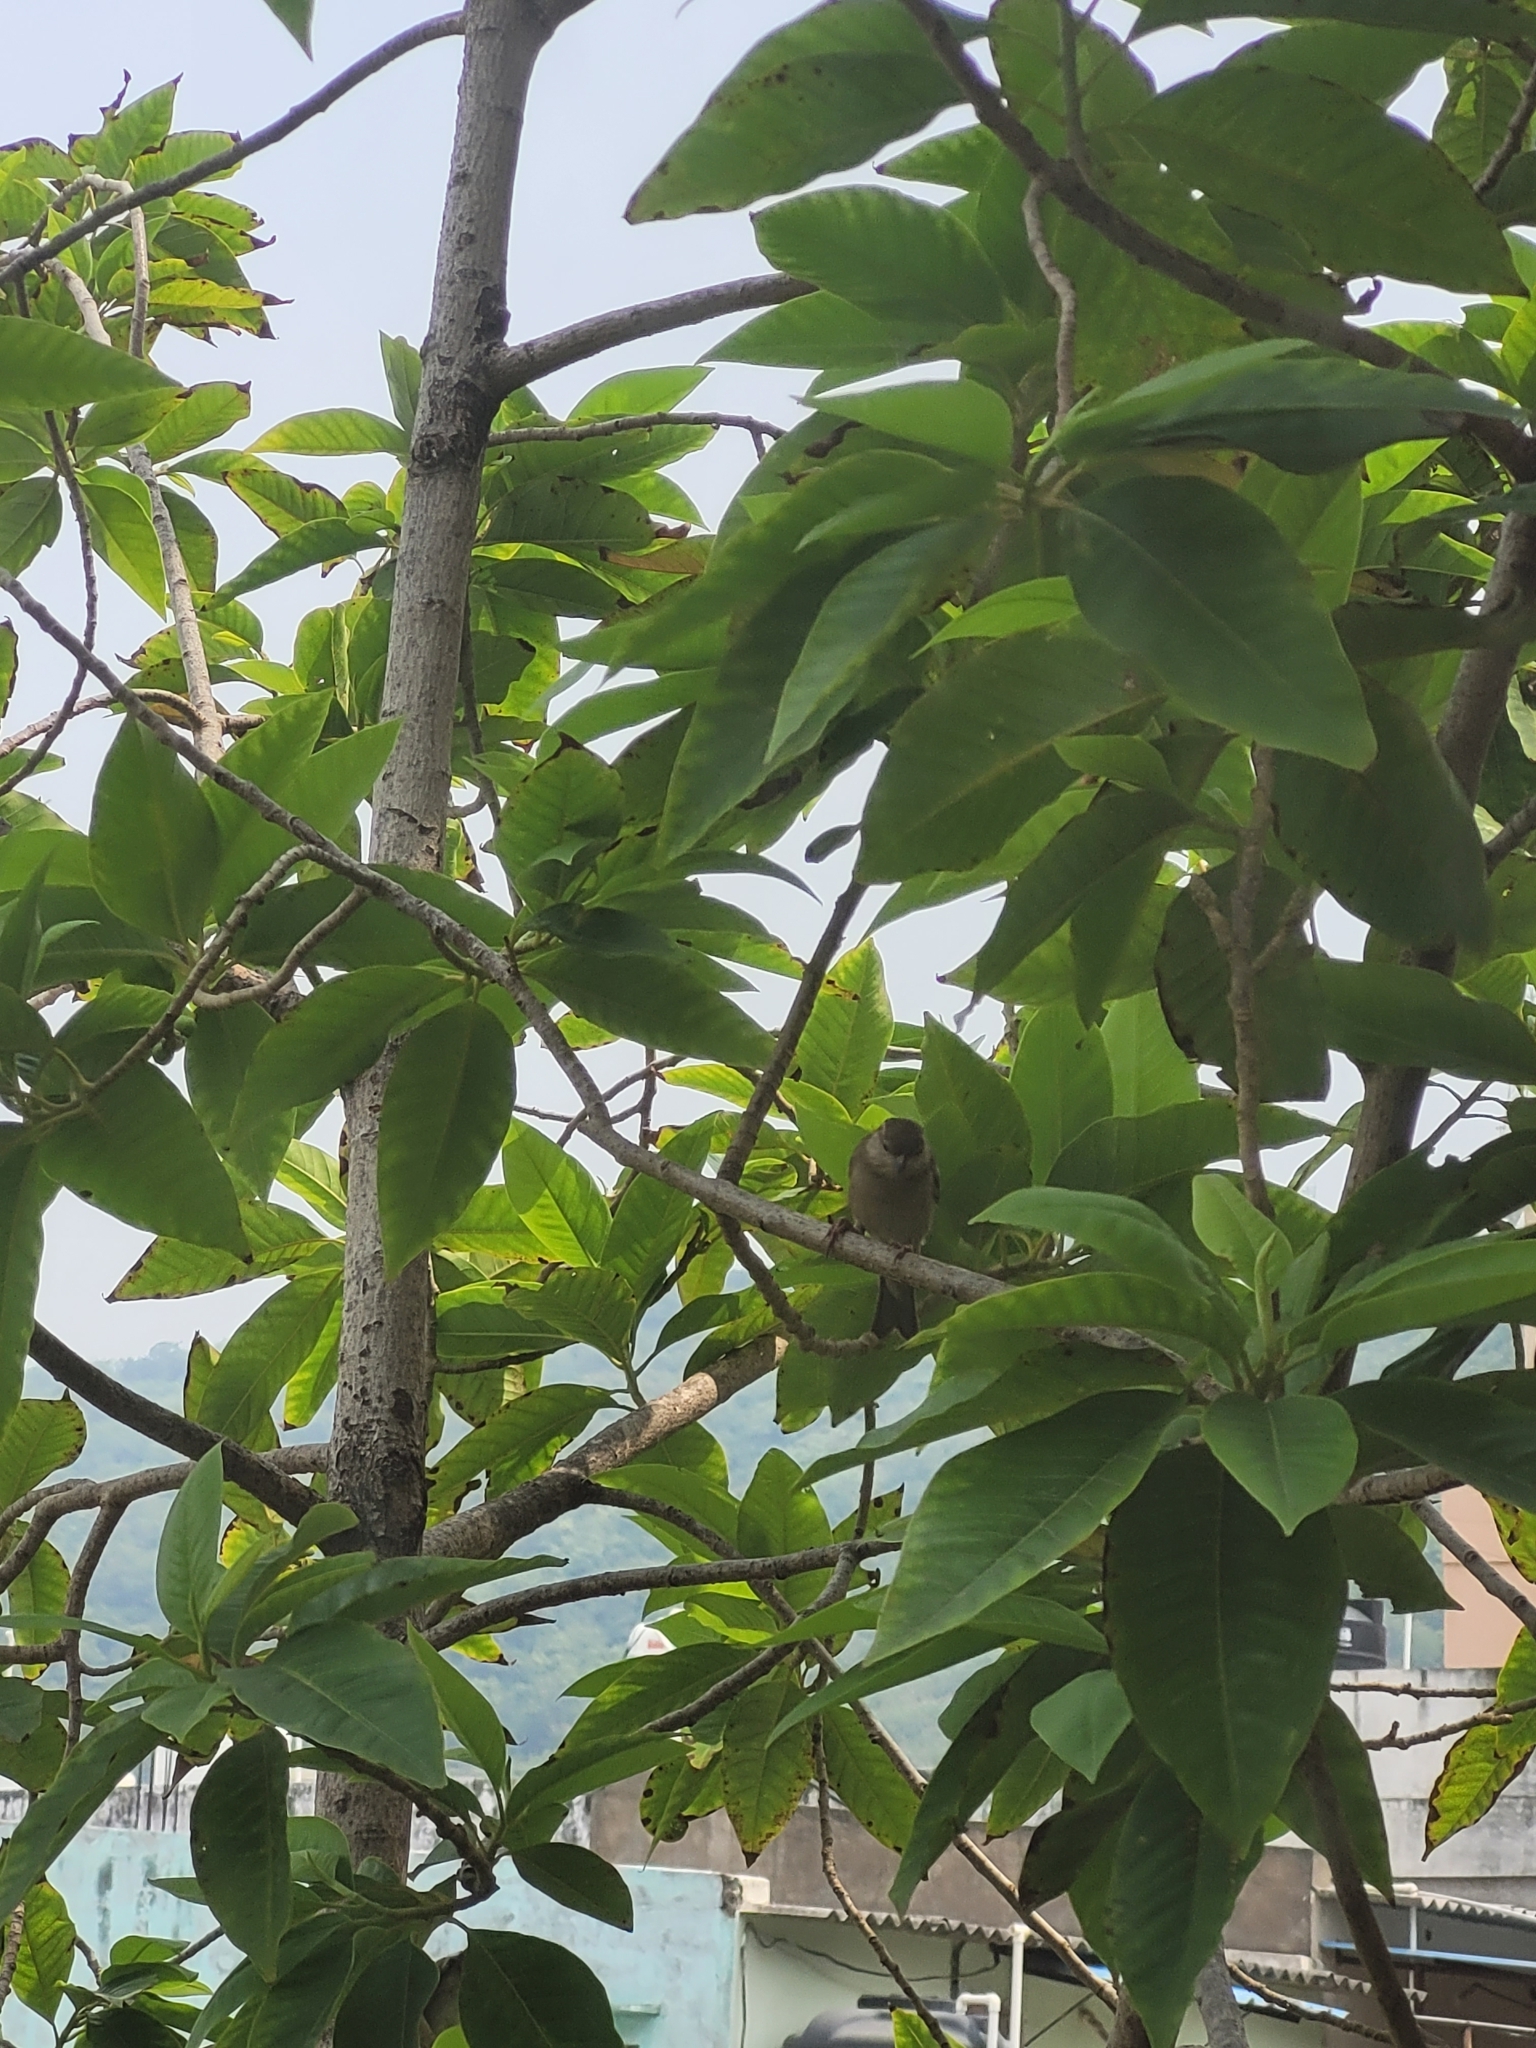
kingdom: Animalia
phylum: Chordata
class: Aves
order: Passeriformes
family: Passeridae
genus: Passer
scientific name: Passer domesticus
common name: House sparrow
